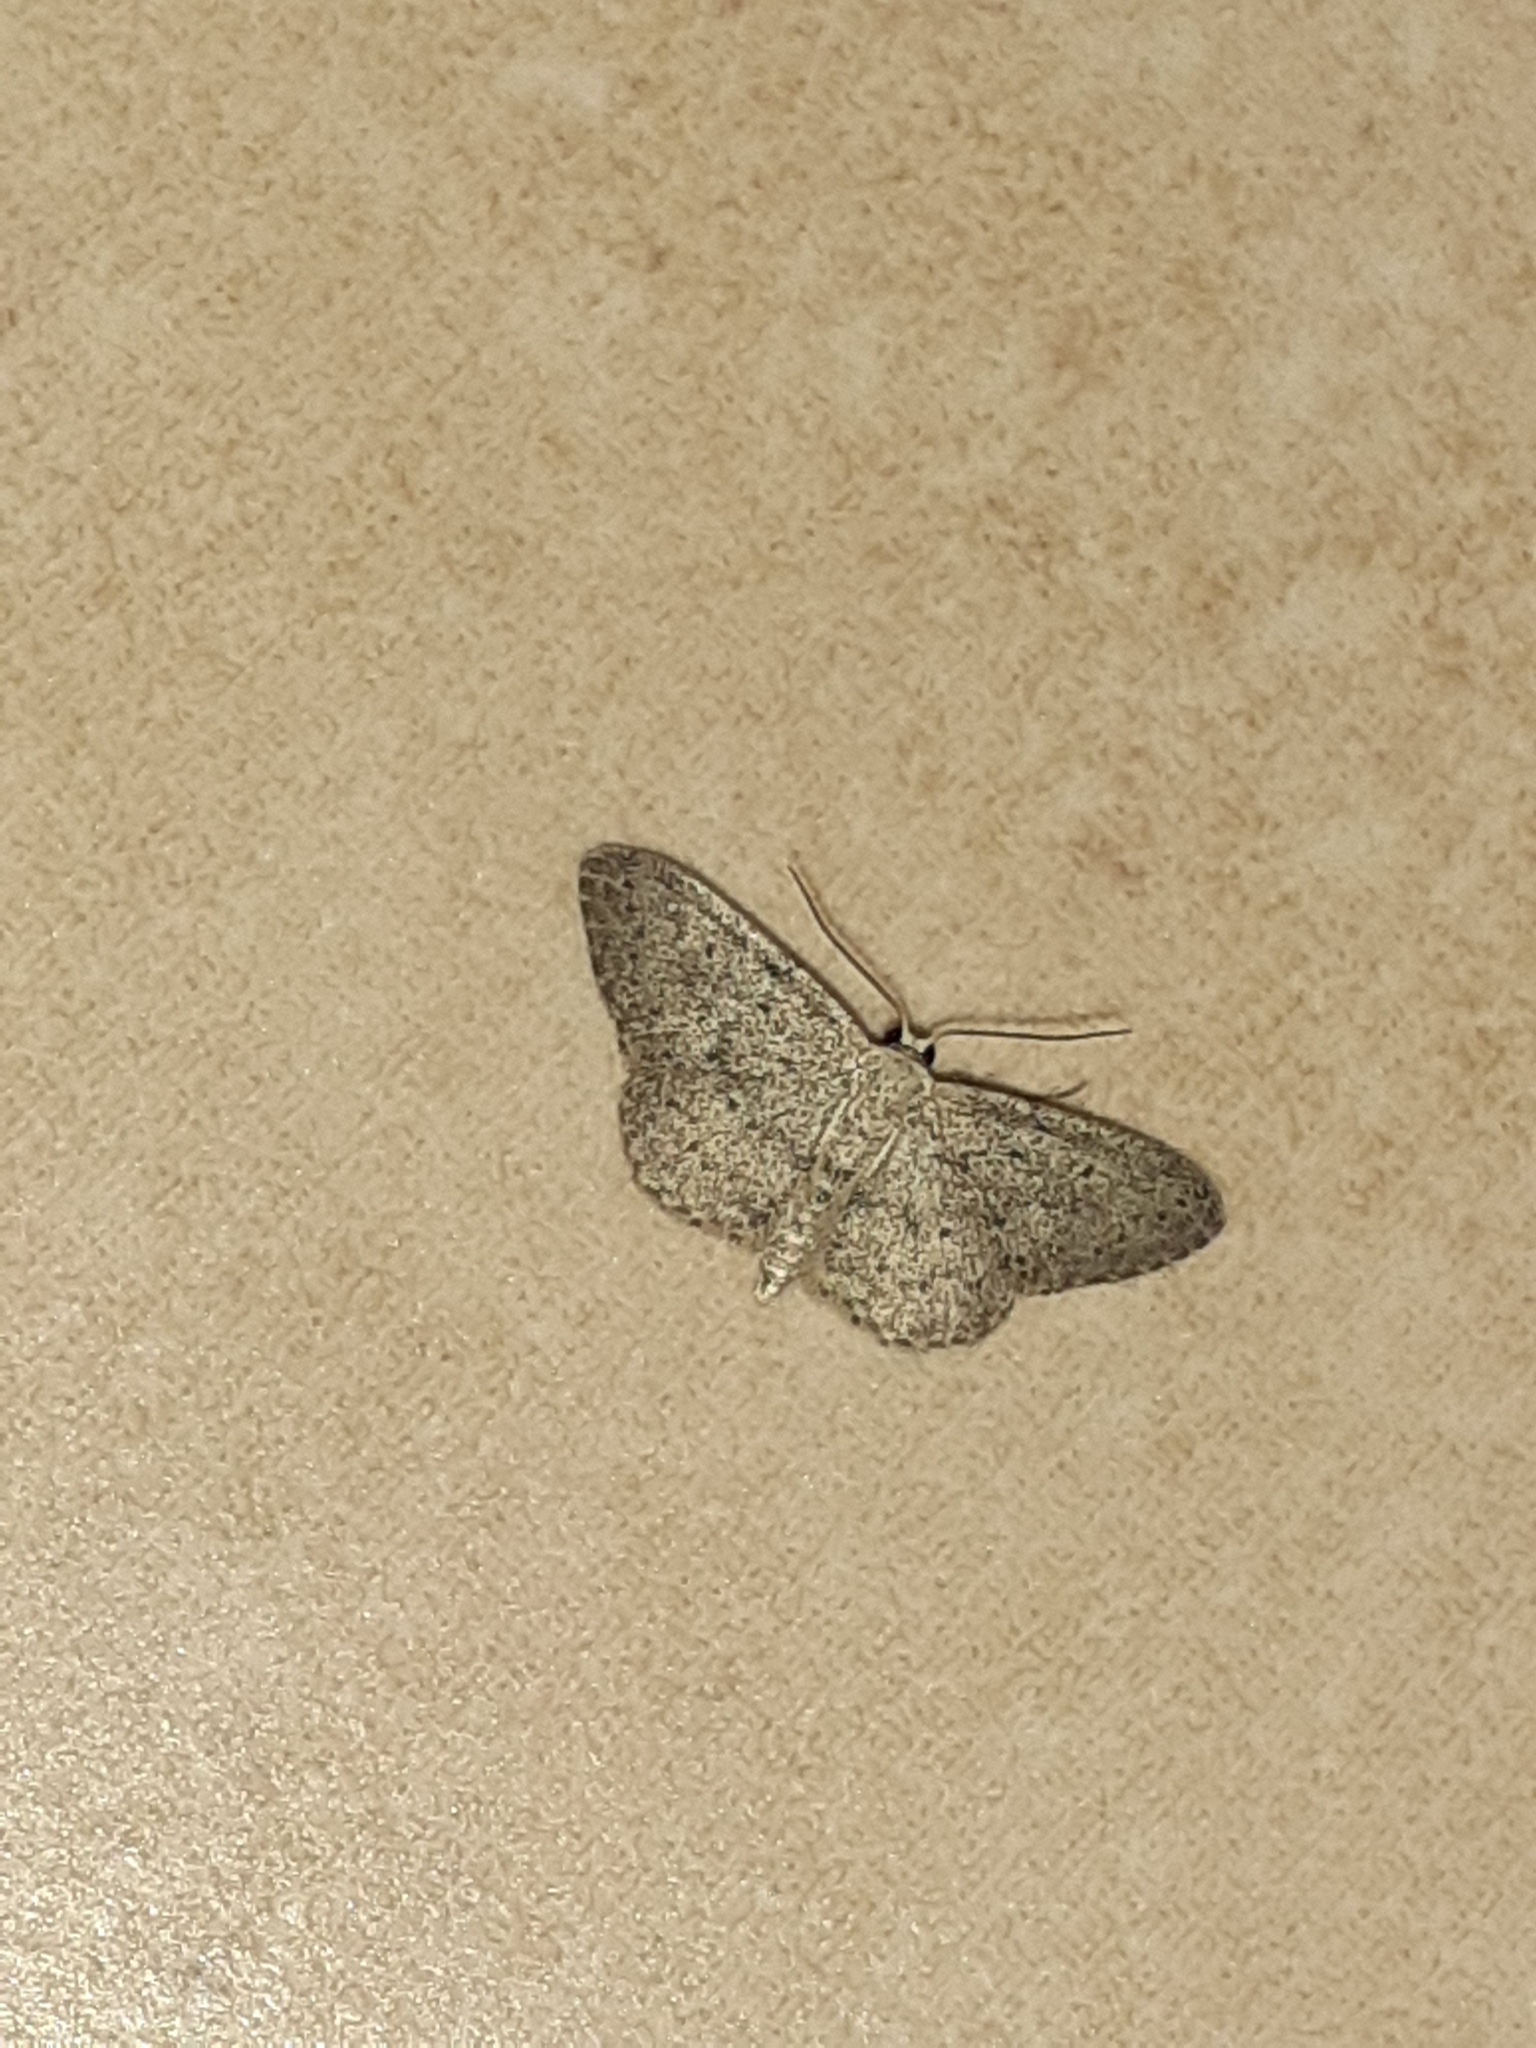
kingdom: Animalia
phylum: Arthropoda
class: Insecta
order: Lepidoptera
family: Geometridae
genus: Idaea
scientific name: Idaea seriata
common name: Small dusty wave
